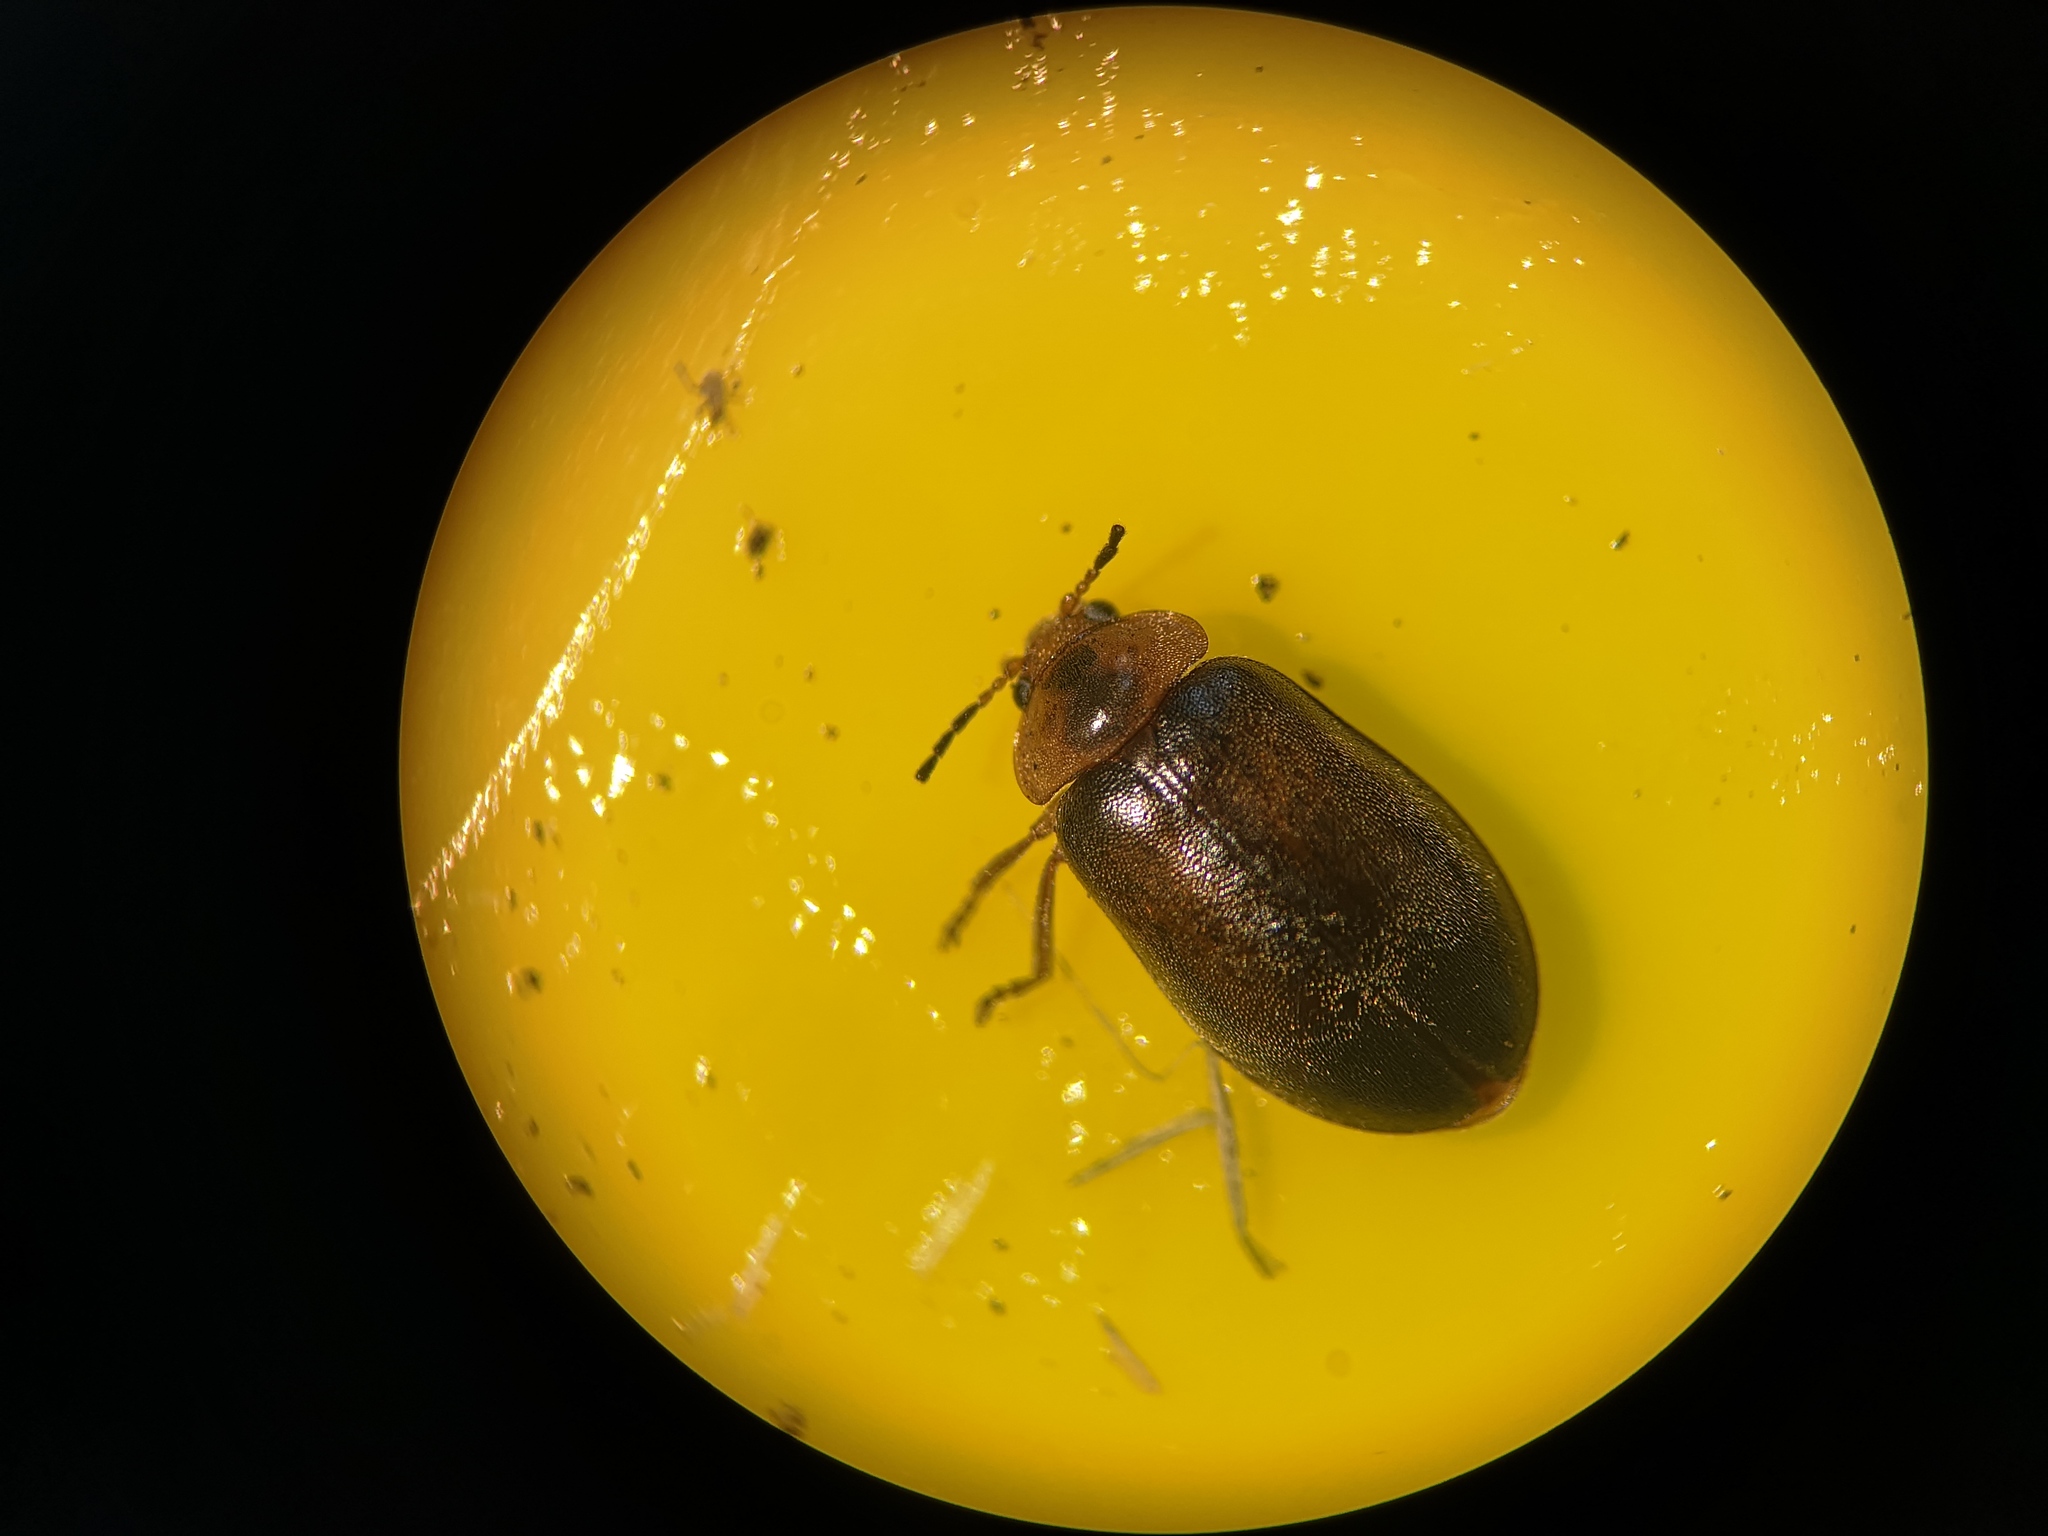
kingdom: Animalia
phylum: Arthropoda
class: Insecta
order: Coleoptera
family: Scirtidae
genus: Microcara
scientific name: Microcara testacea
